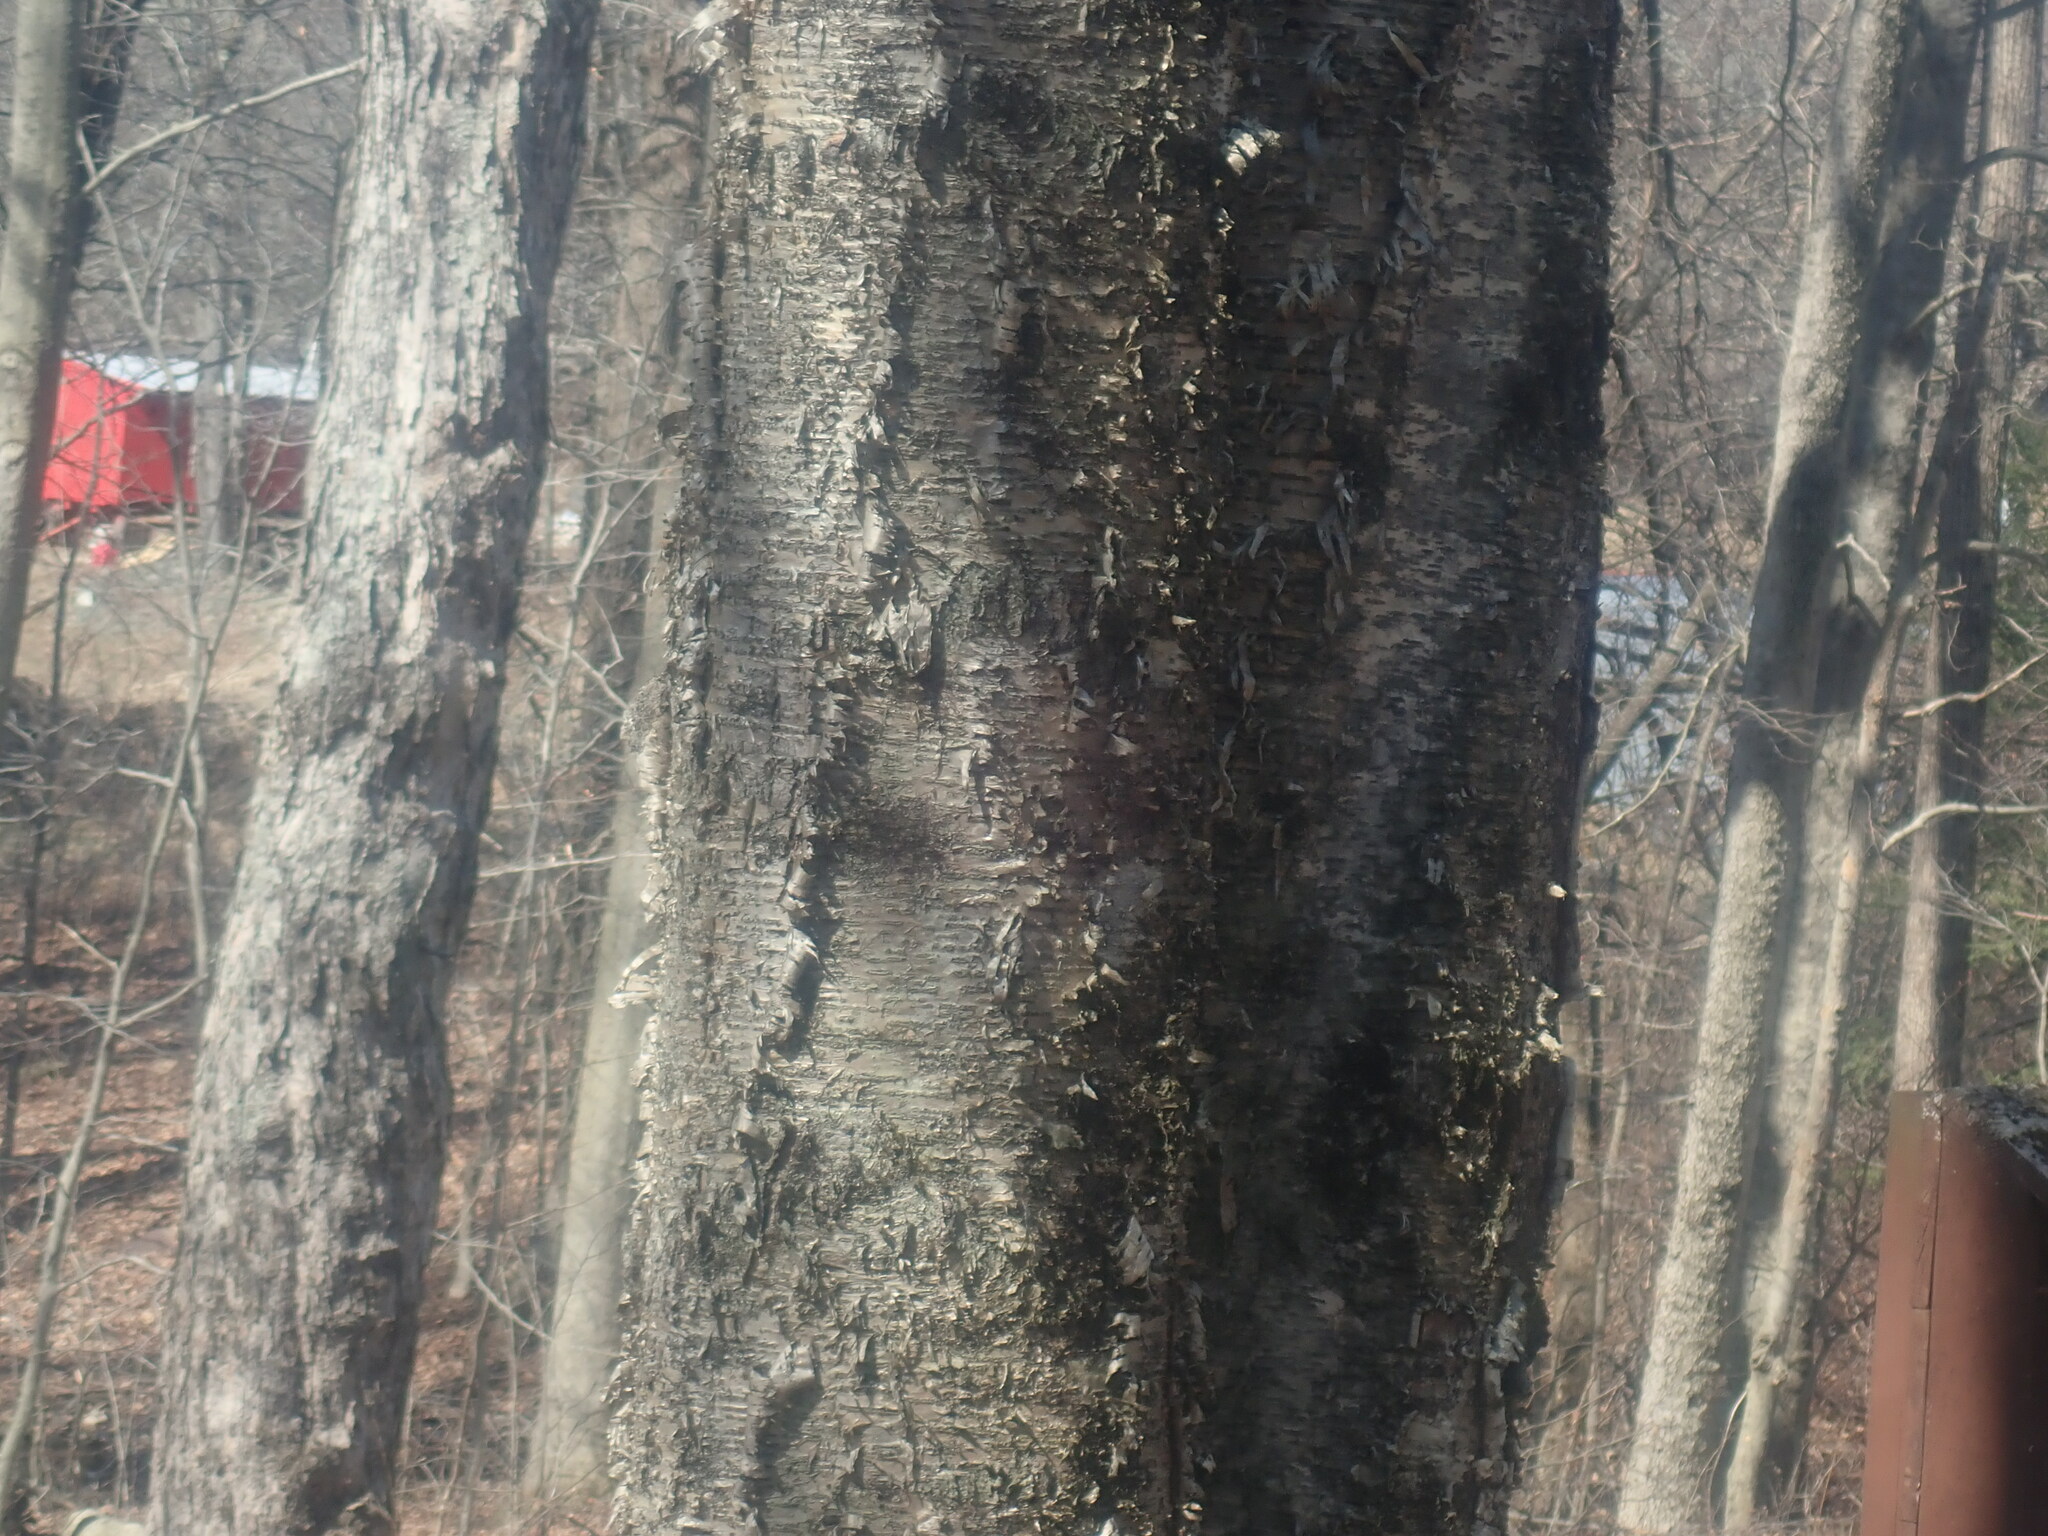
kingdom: Plantae
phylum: Tracheophyta
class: Magnoliopsida
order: Fagales
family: Betulaceae
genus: Betula
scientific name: Betula alleghaniensis
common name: Yellow birch
